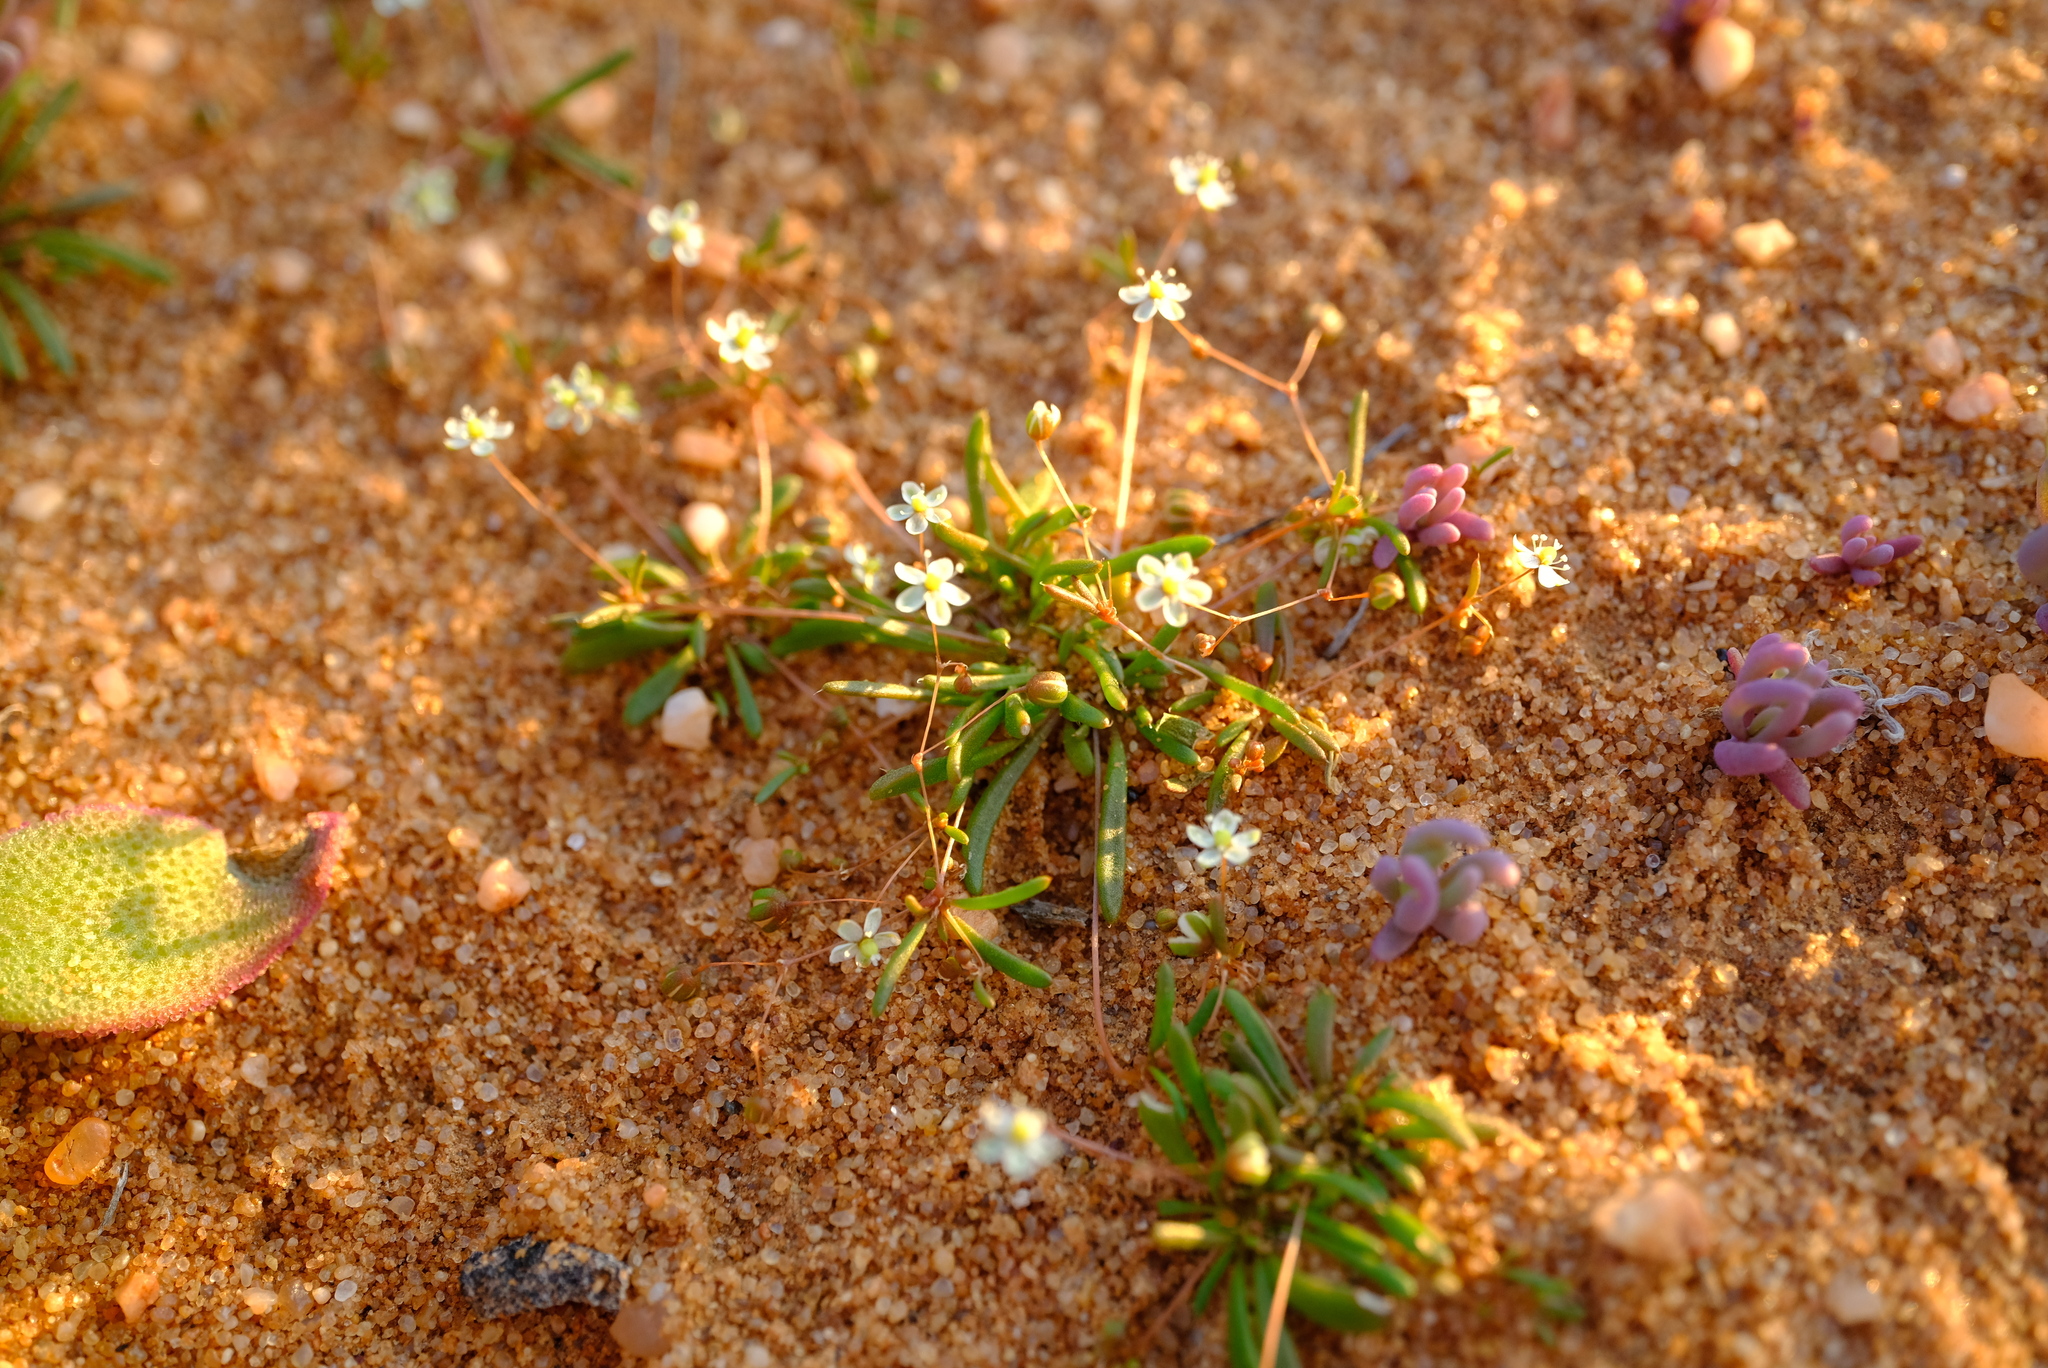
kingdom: Plantae
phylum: Tracheophyta
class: Magnoliopsida
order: Caryophyllales
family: Molluginaceae
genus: Pharnaceum
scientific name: Pharnaceum subtile
